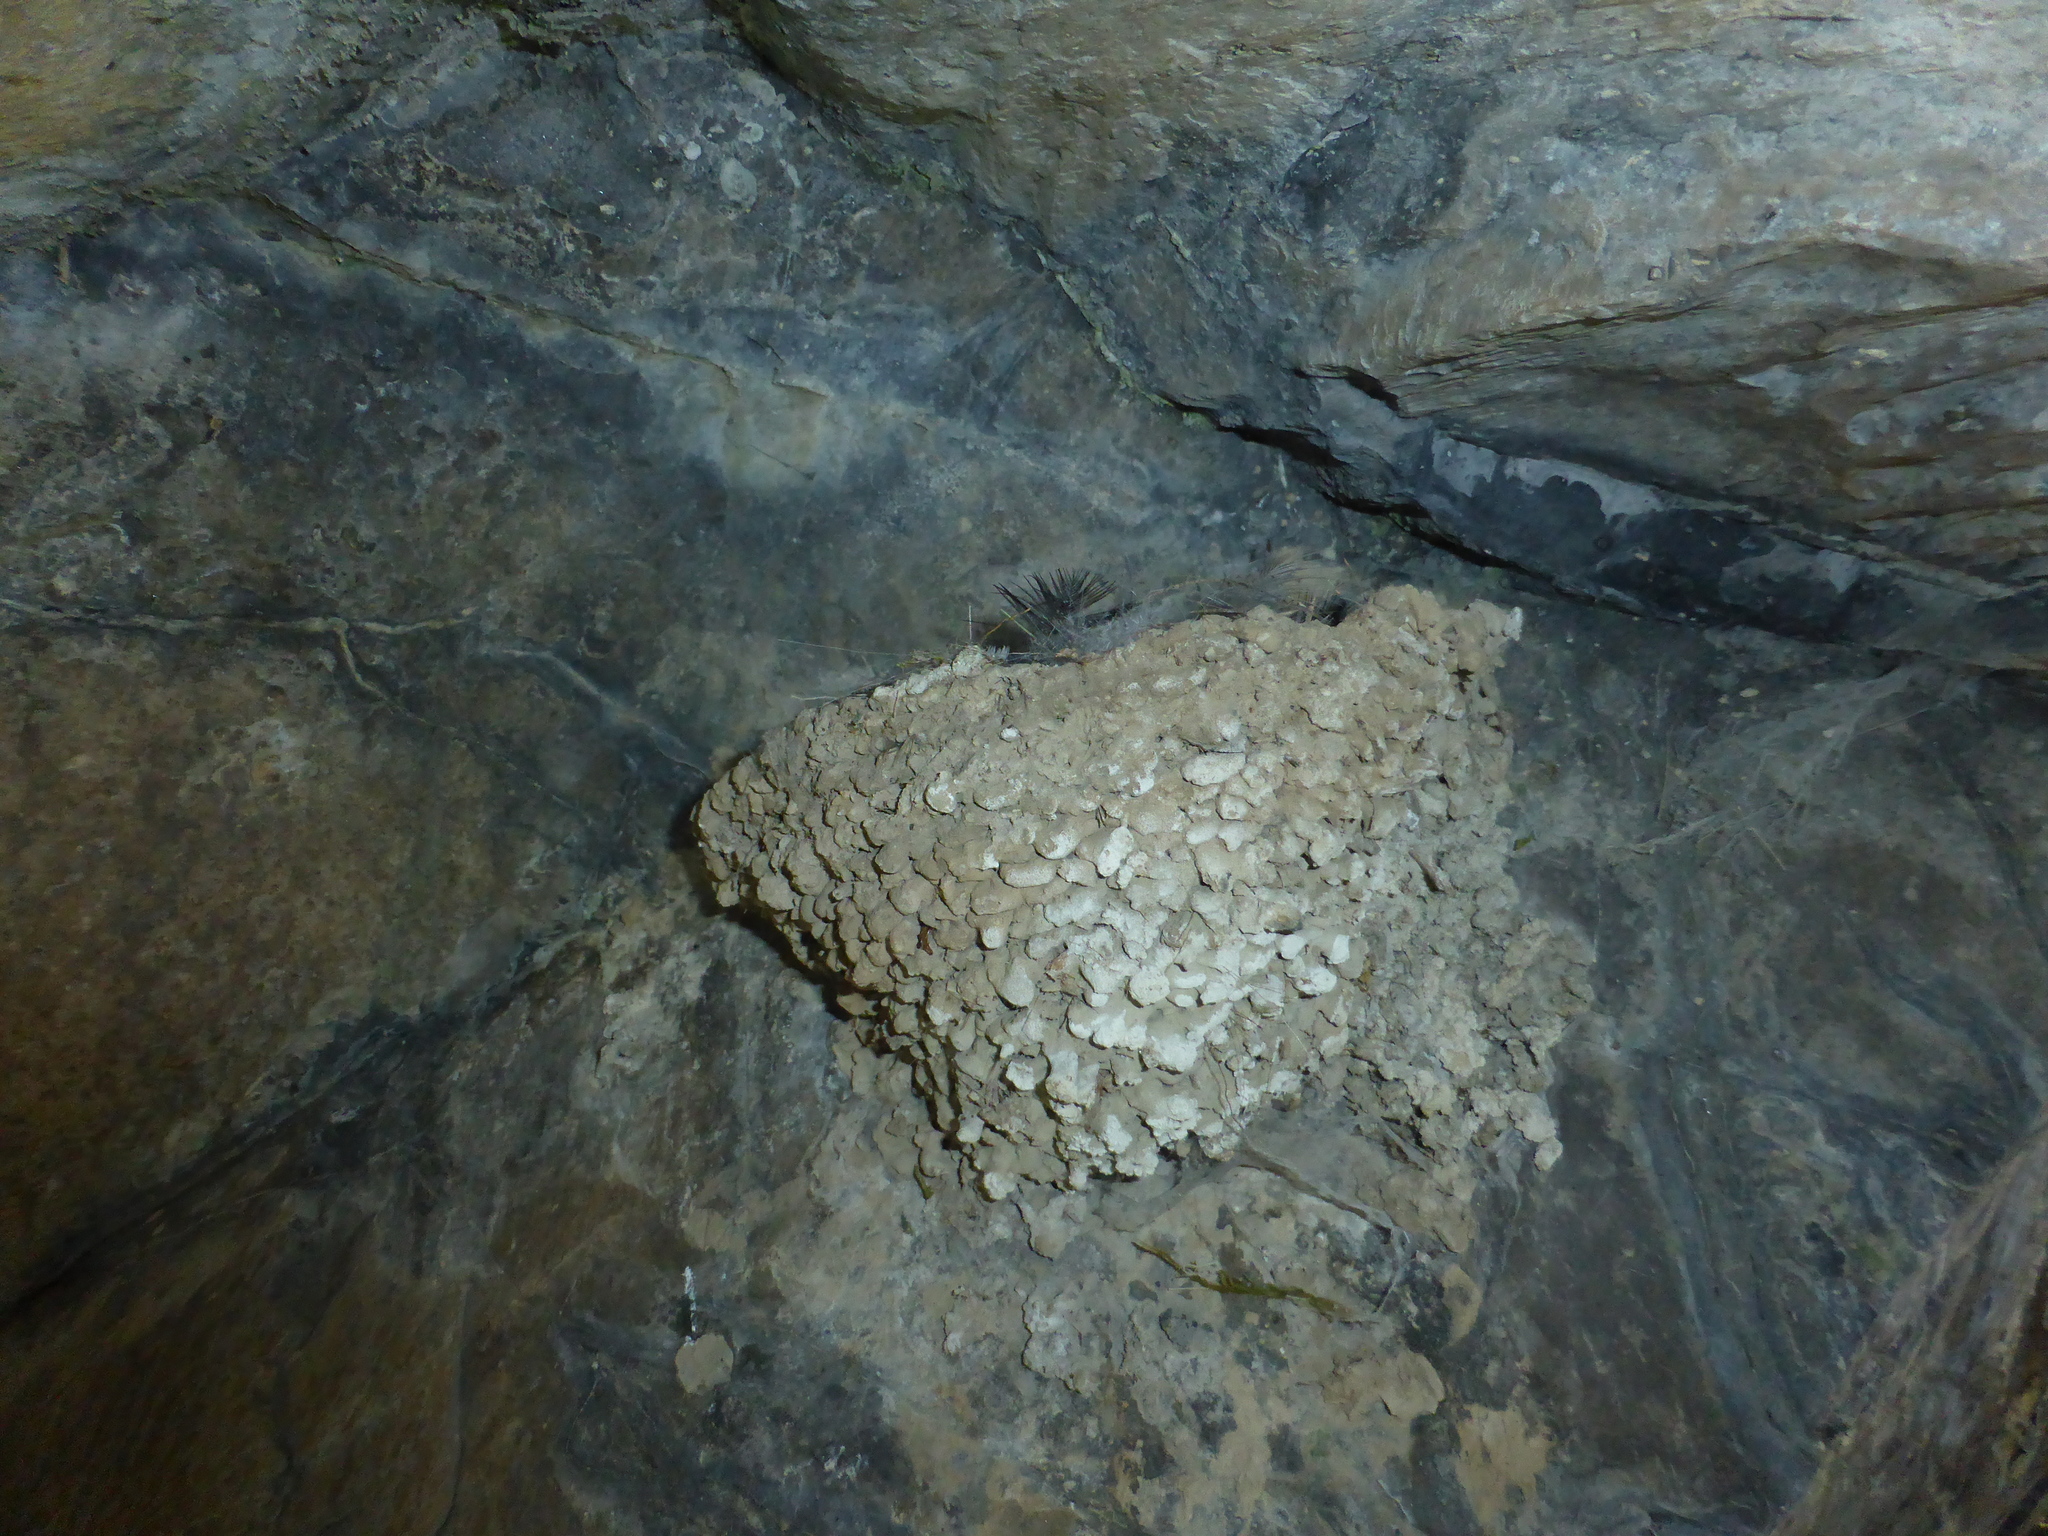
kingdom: Animalia
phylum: Chordata
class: Aves
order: Passeriformes
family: Hirundinidae
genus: Ptyonoprogne
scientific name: Ptyonoprogne rupestris
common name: Eurasian crag martin
